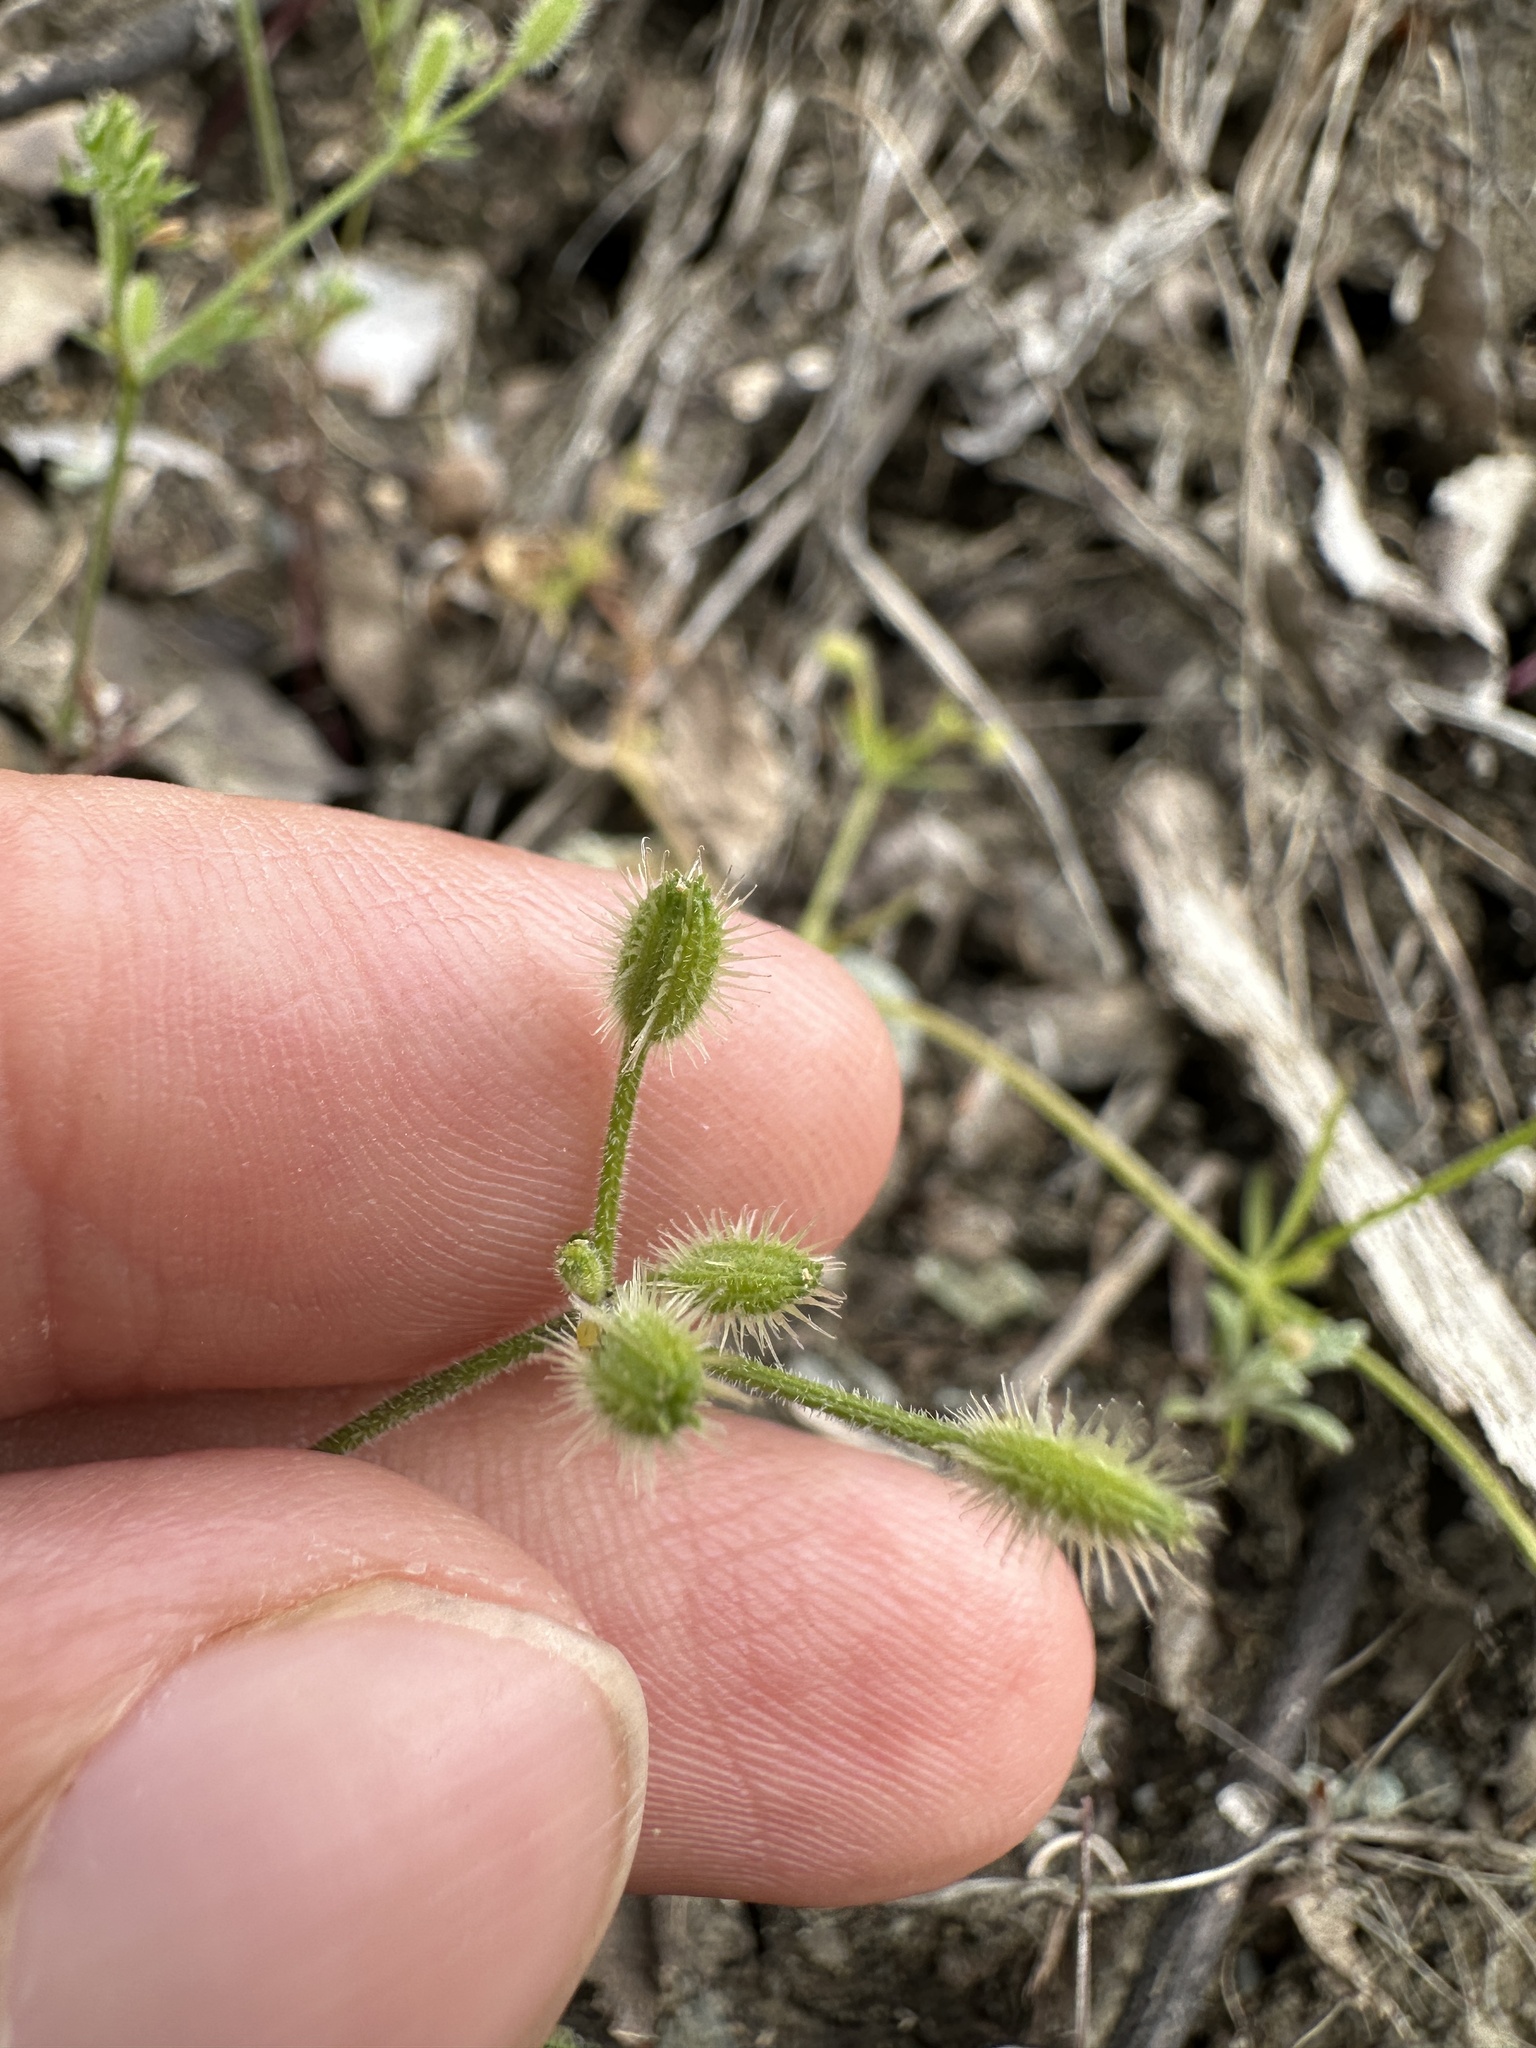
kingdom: Plantae
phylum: Tracheophyta
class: Magnoliopsida
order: Apiales
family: Apiaceae
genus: Yabea
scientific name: Yabea microcarpa
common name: False carrot
